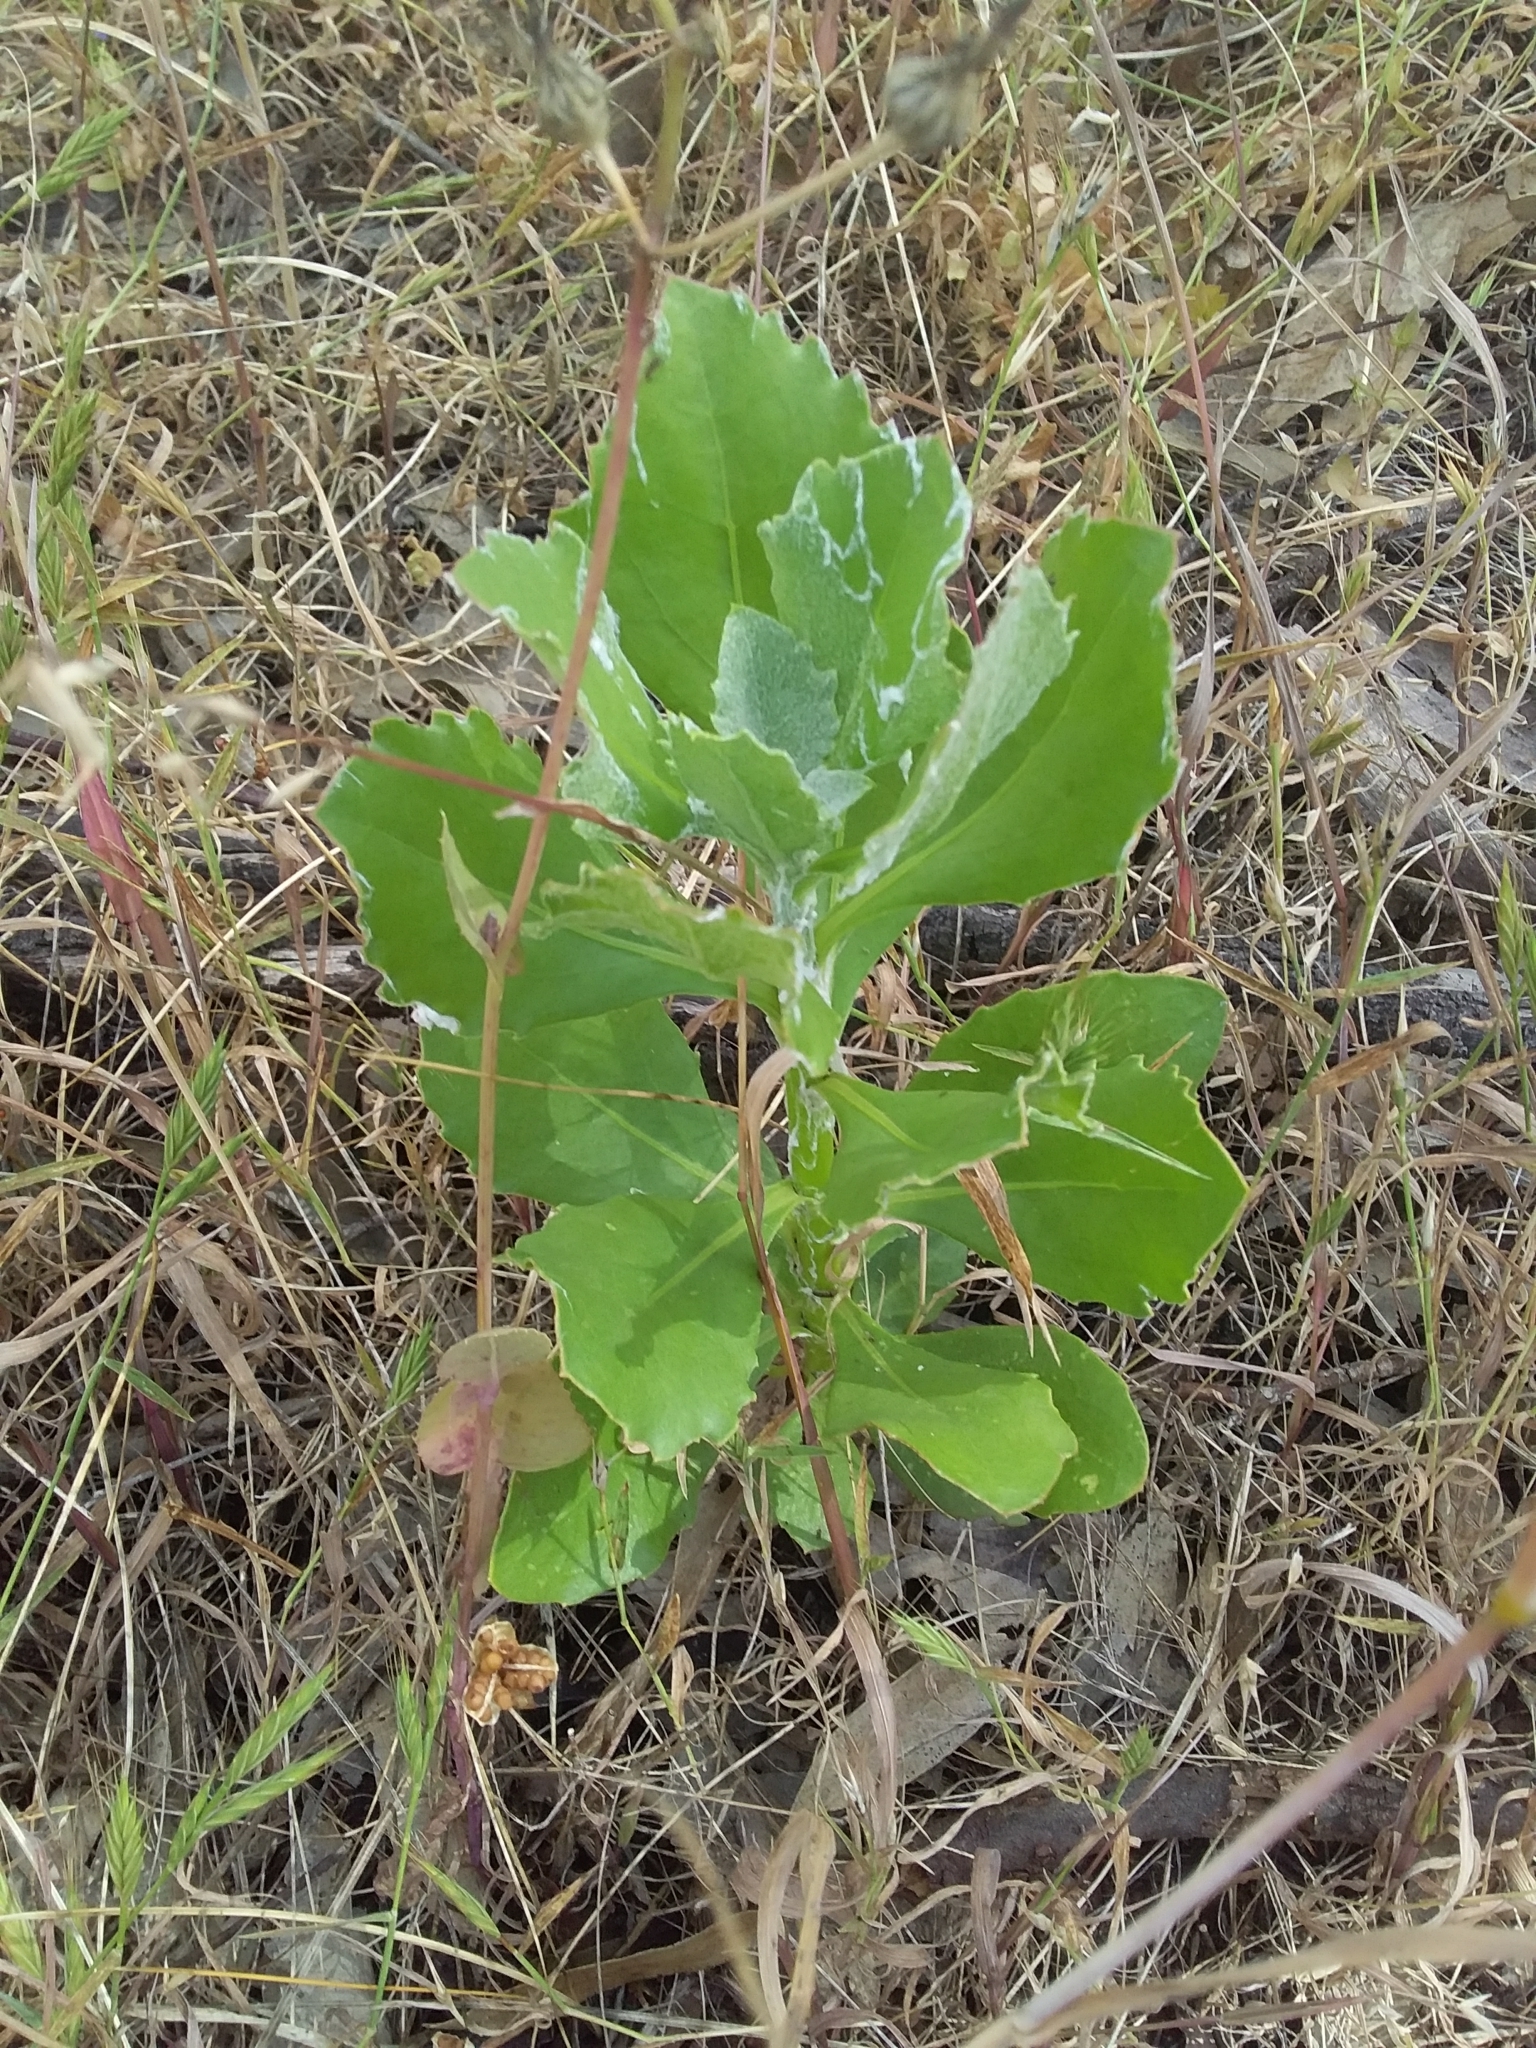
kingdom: Plantae
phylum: Tracheophyta
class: Magnoliopsida
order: Asterales
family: Asteraceae
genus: Osteospermum
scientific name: Osteospermum moniliferum
